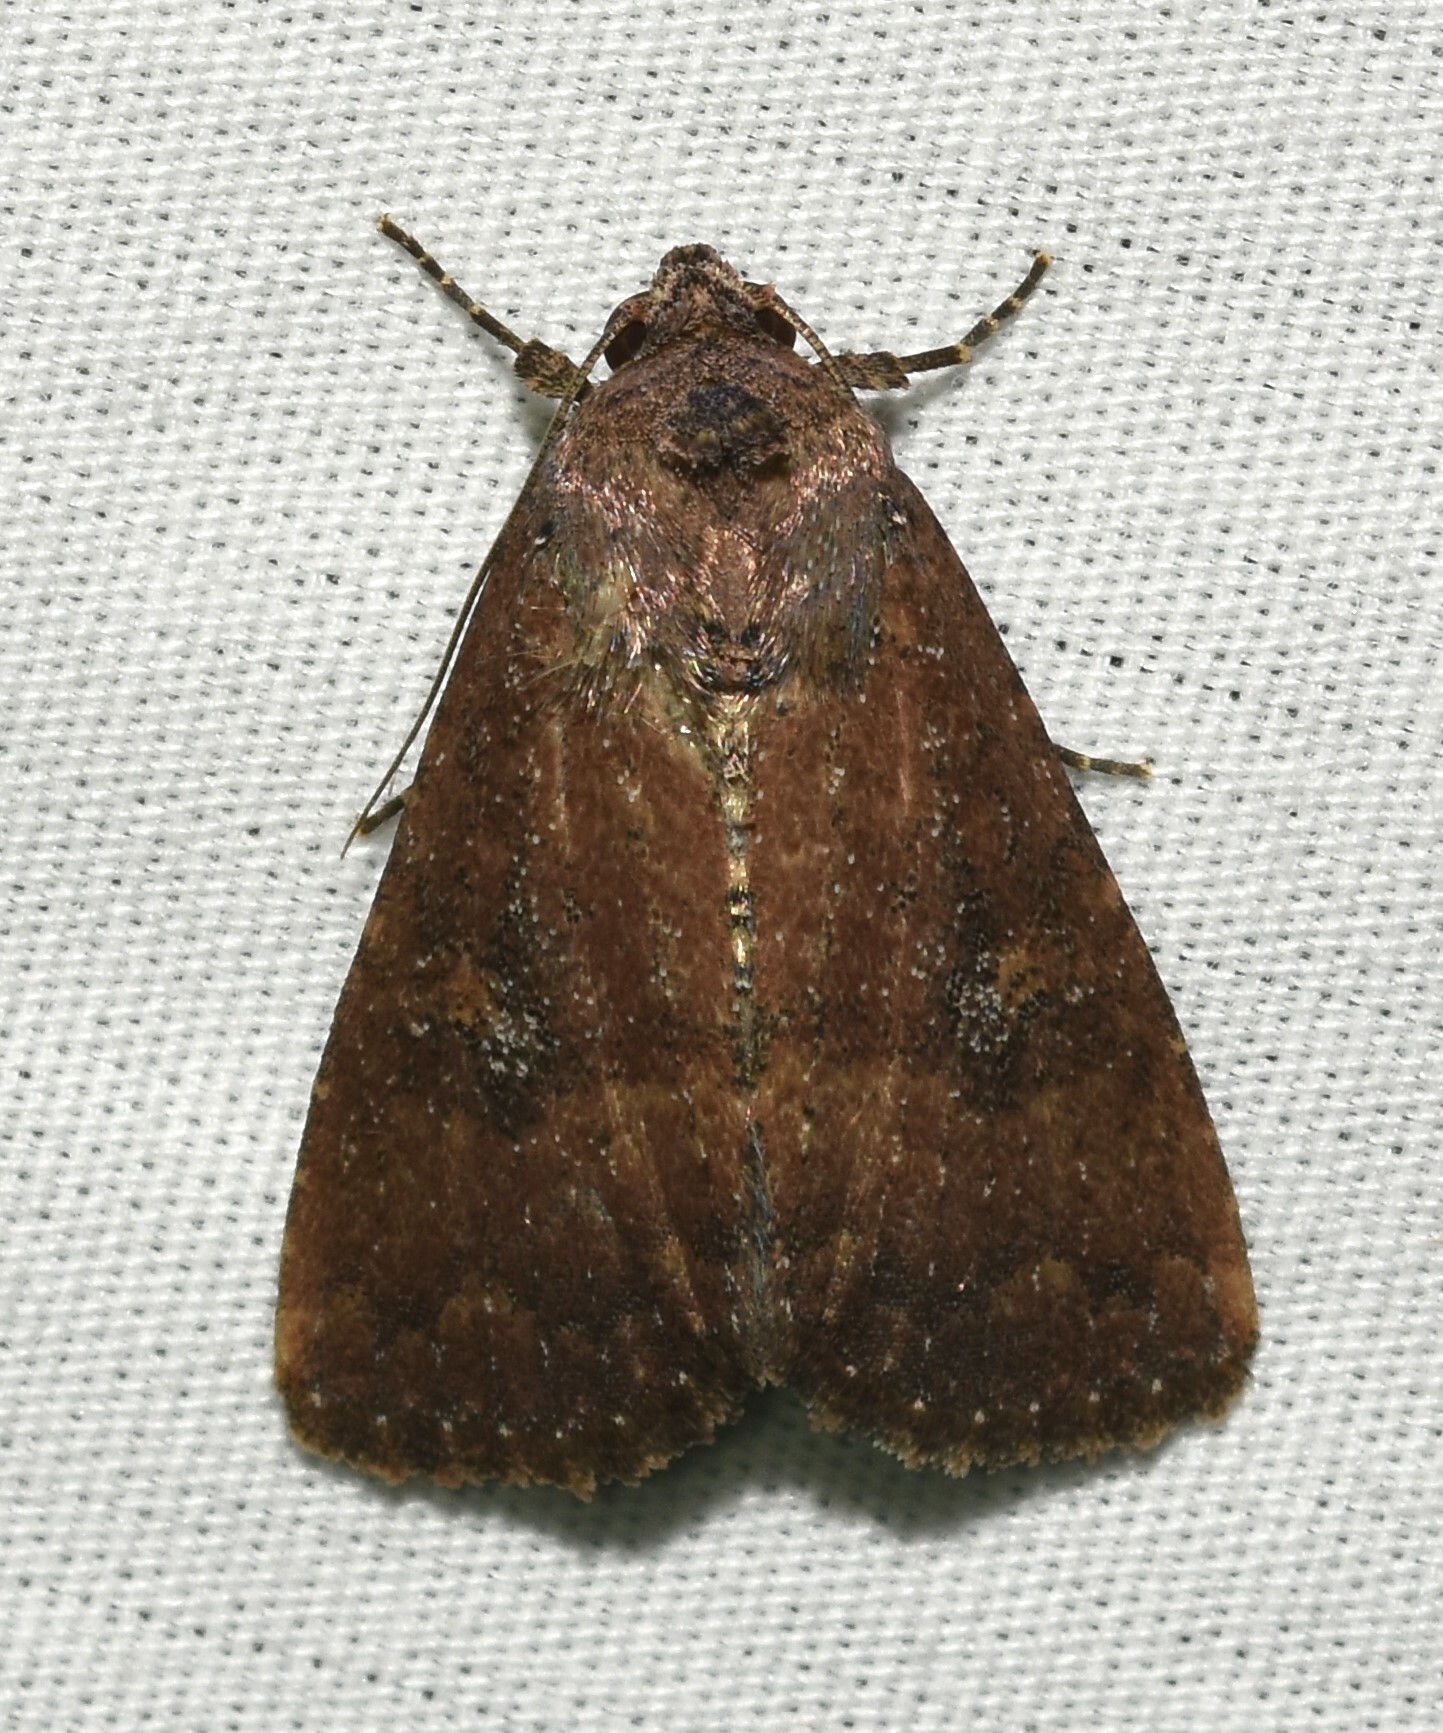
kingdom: Animalia
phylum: Arthropoda
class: Insecta
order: Lepidoptera
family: Noctuidae
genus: Condica
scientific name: Condica sutor
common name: Cobbler moth
